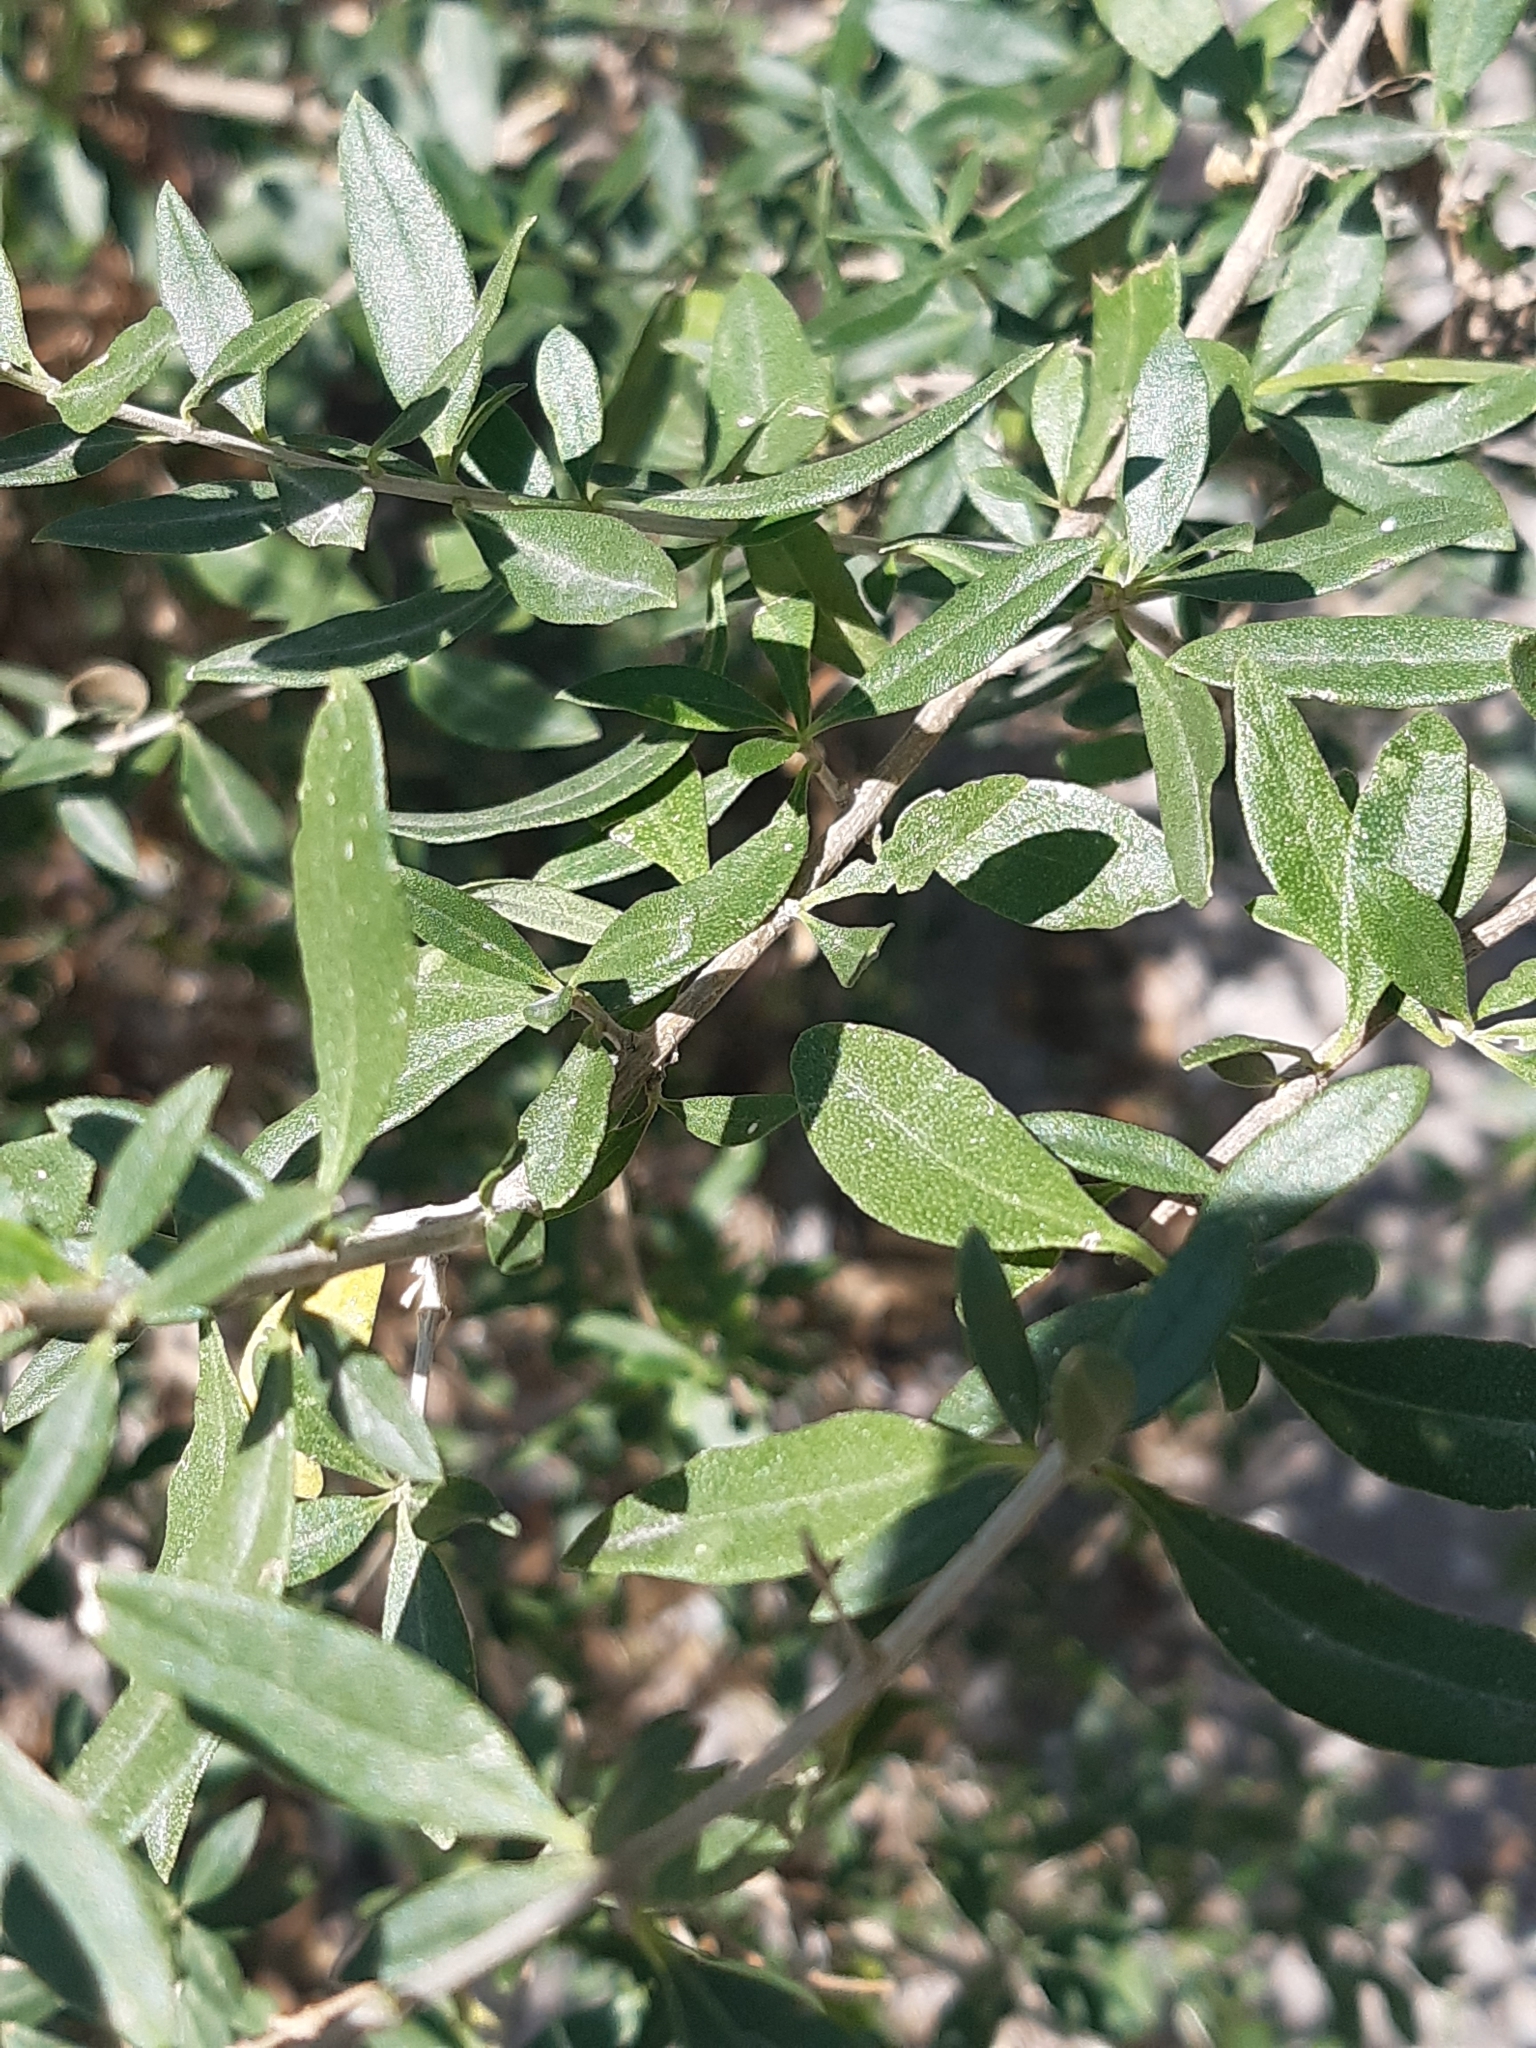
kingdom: Plantae
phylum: Tracheophyta
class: Magnoliopsida
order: Lamiales
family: Oleaceae
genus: Forestiera
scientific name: Forestiera phillyreoides
